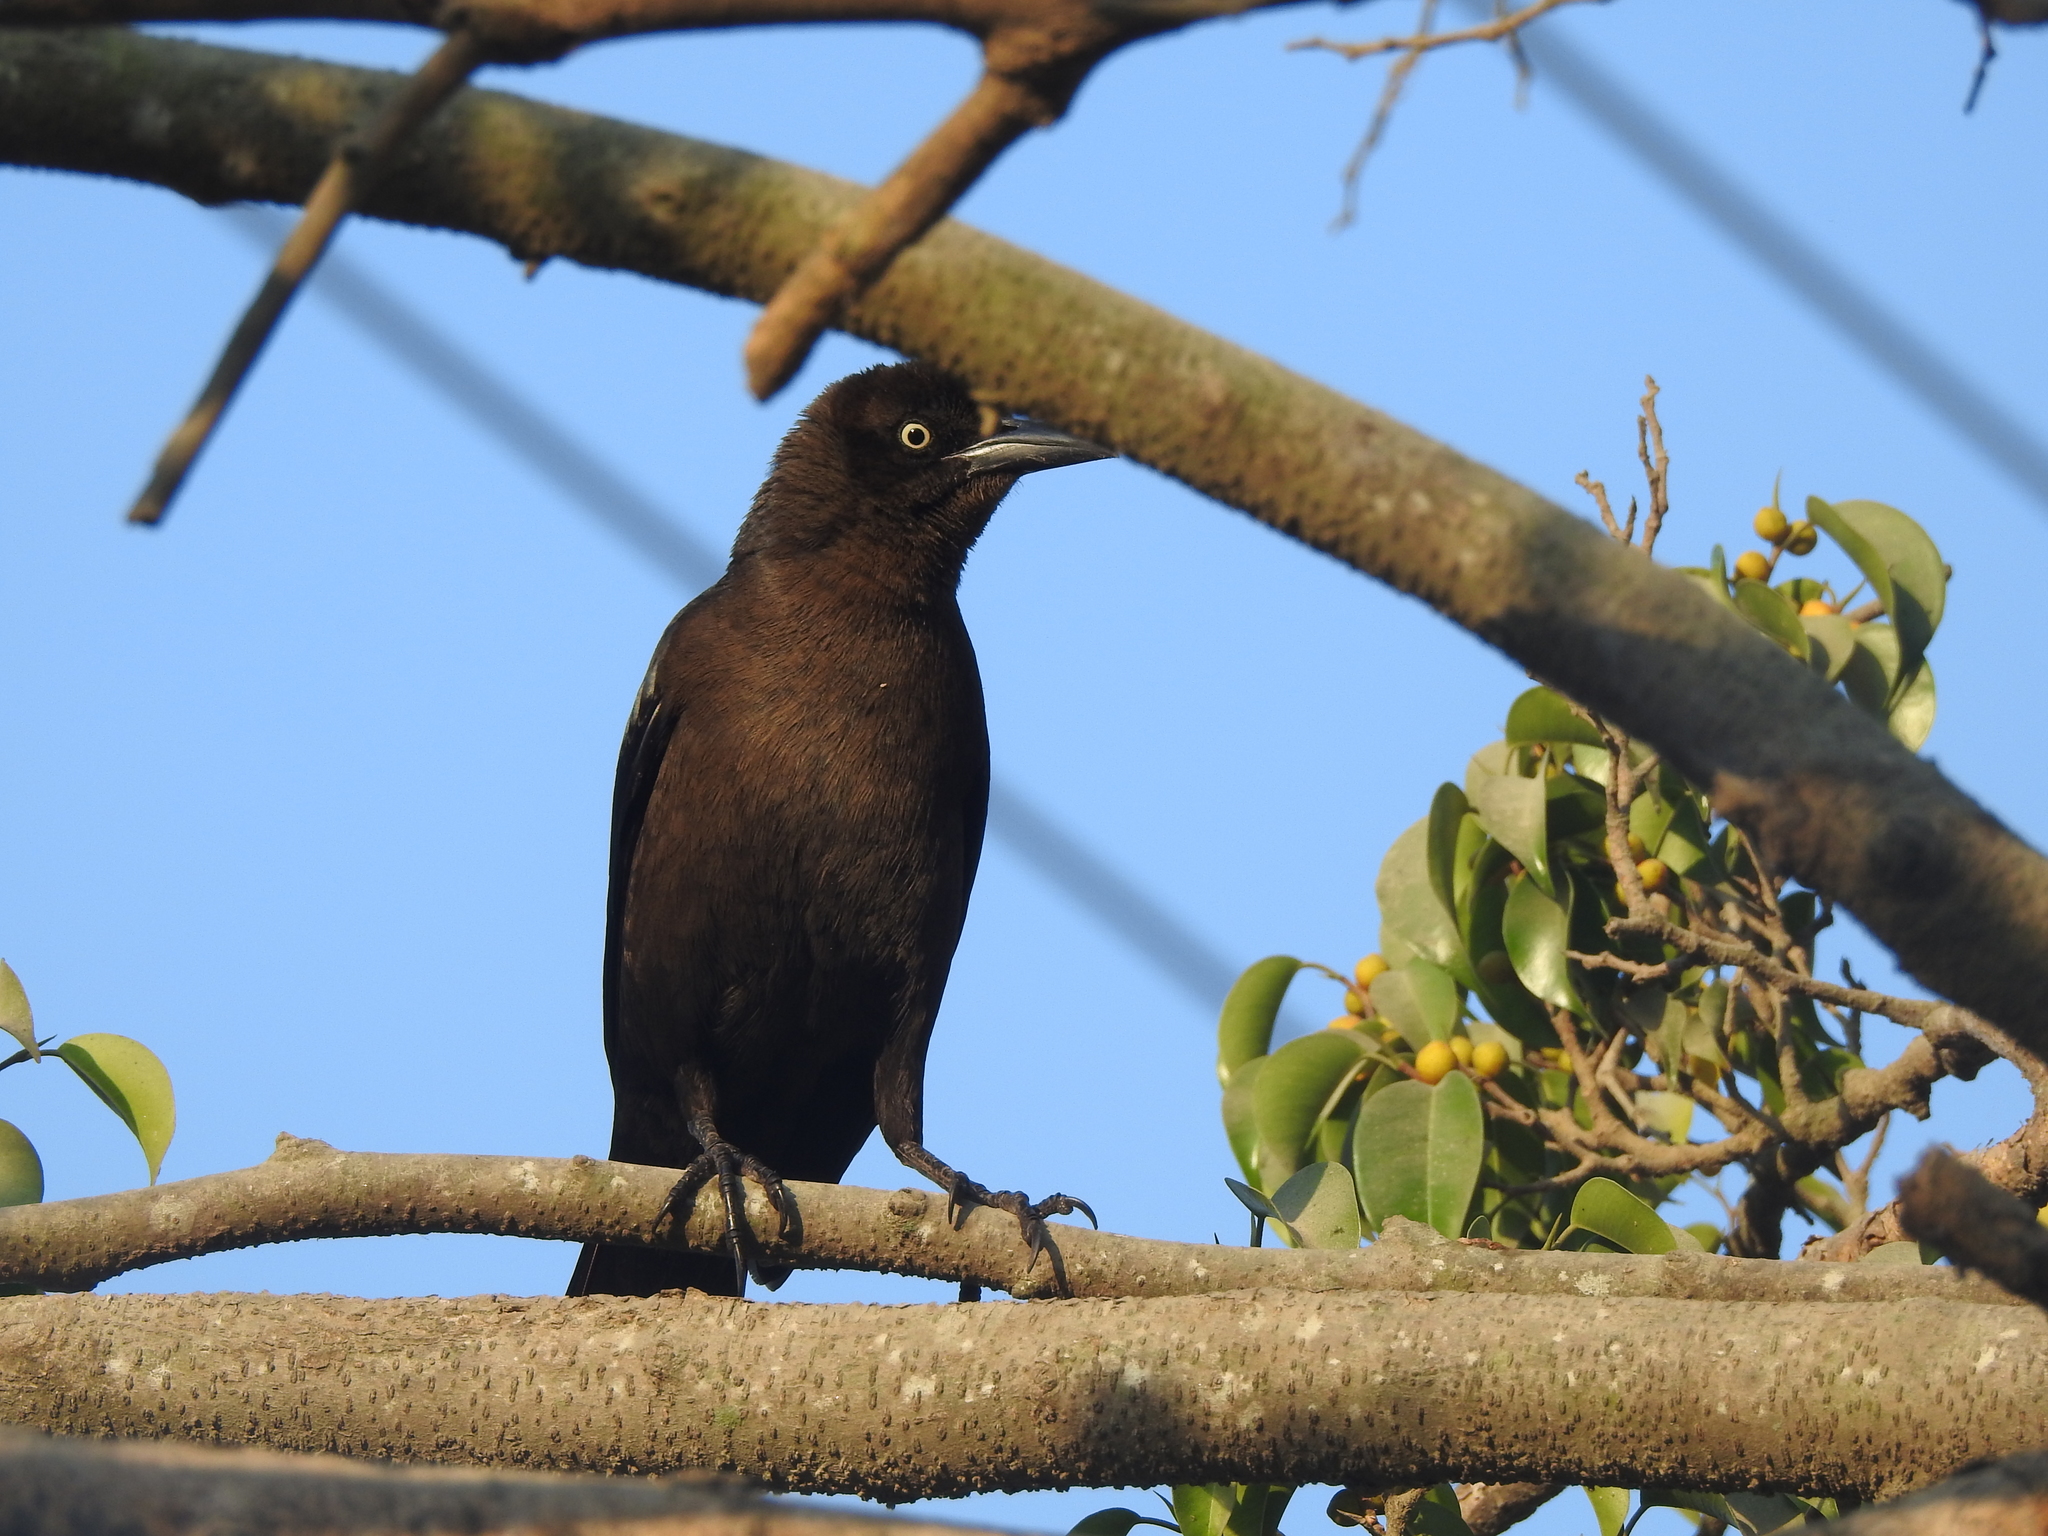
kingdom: Animalia
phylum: Chordata
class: Aves
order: Passeriformes
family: Icteridae
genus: Quiscalus
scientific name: Quiscalus mexicanus
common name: Great-tailed grackle
